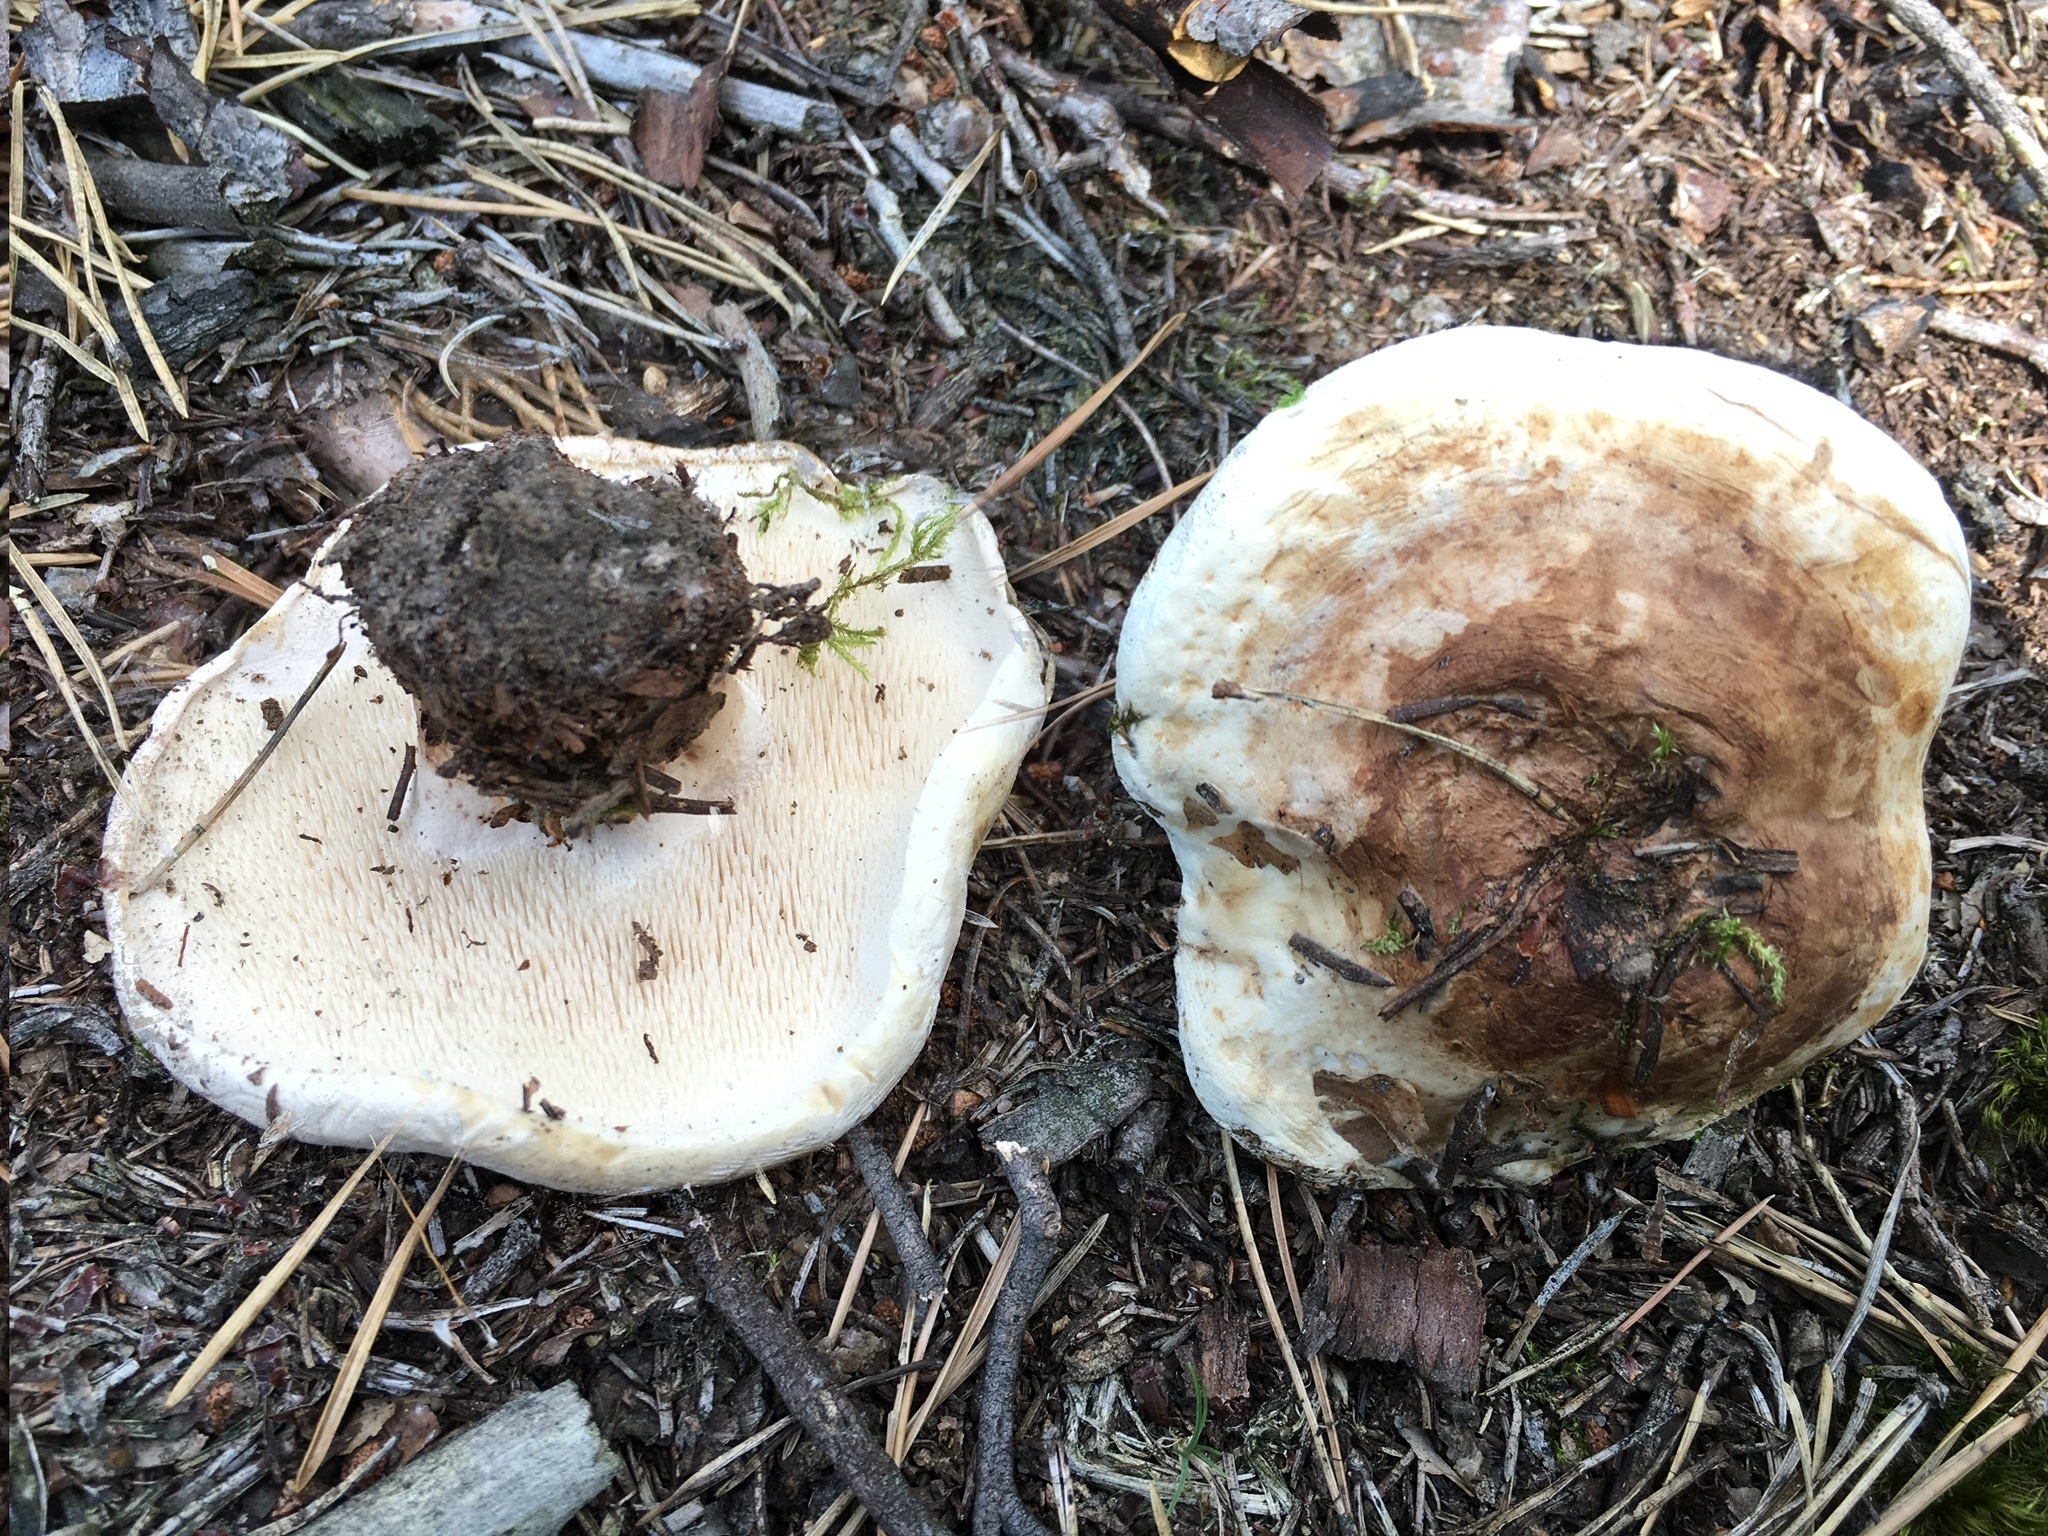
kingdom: Fungi
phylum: Basidiomycota
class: Agaricomycetes
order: Thelephorales
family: Thelephoraceae
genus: Phellodon
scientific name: Phellodon fuligineoalbus
